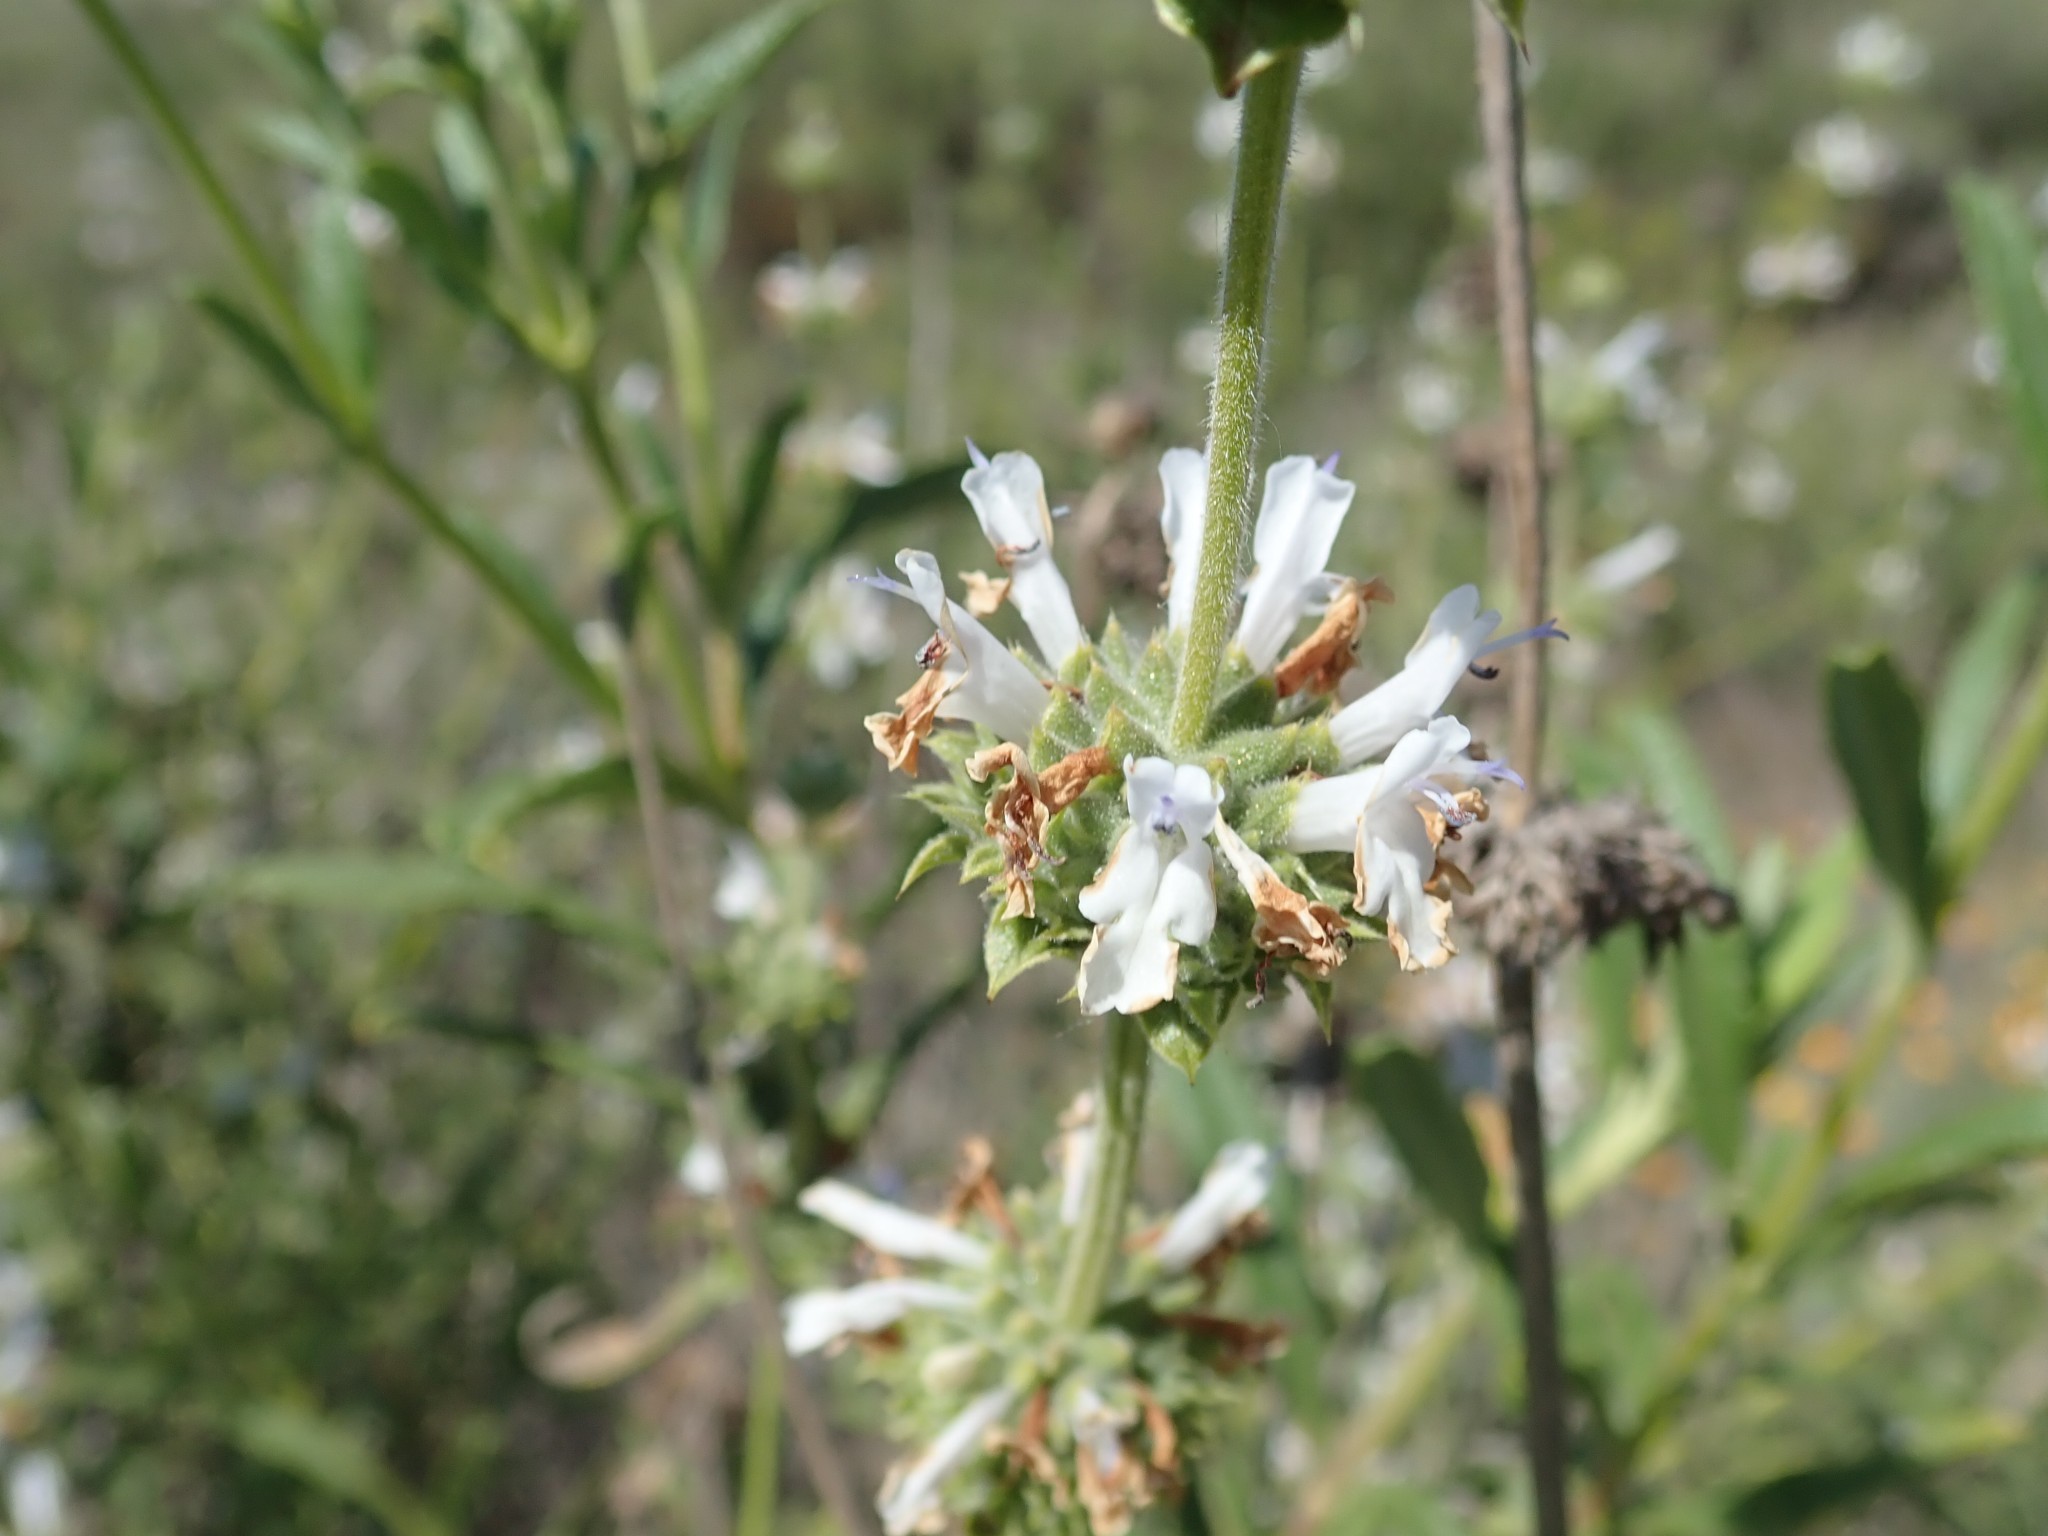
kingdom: Plantae
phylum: Tracheophyta
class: Magnoliopsida
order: Lamiales
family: Lamiaceae
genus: Salvia
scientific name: Salvia mellifera
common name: Black sage
